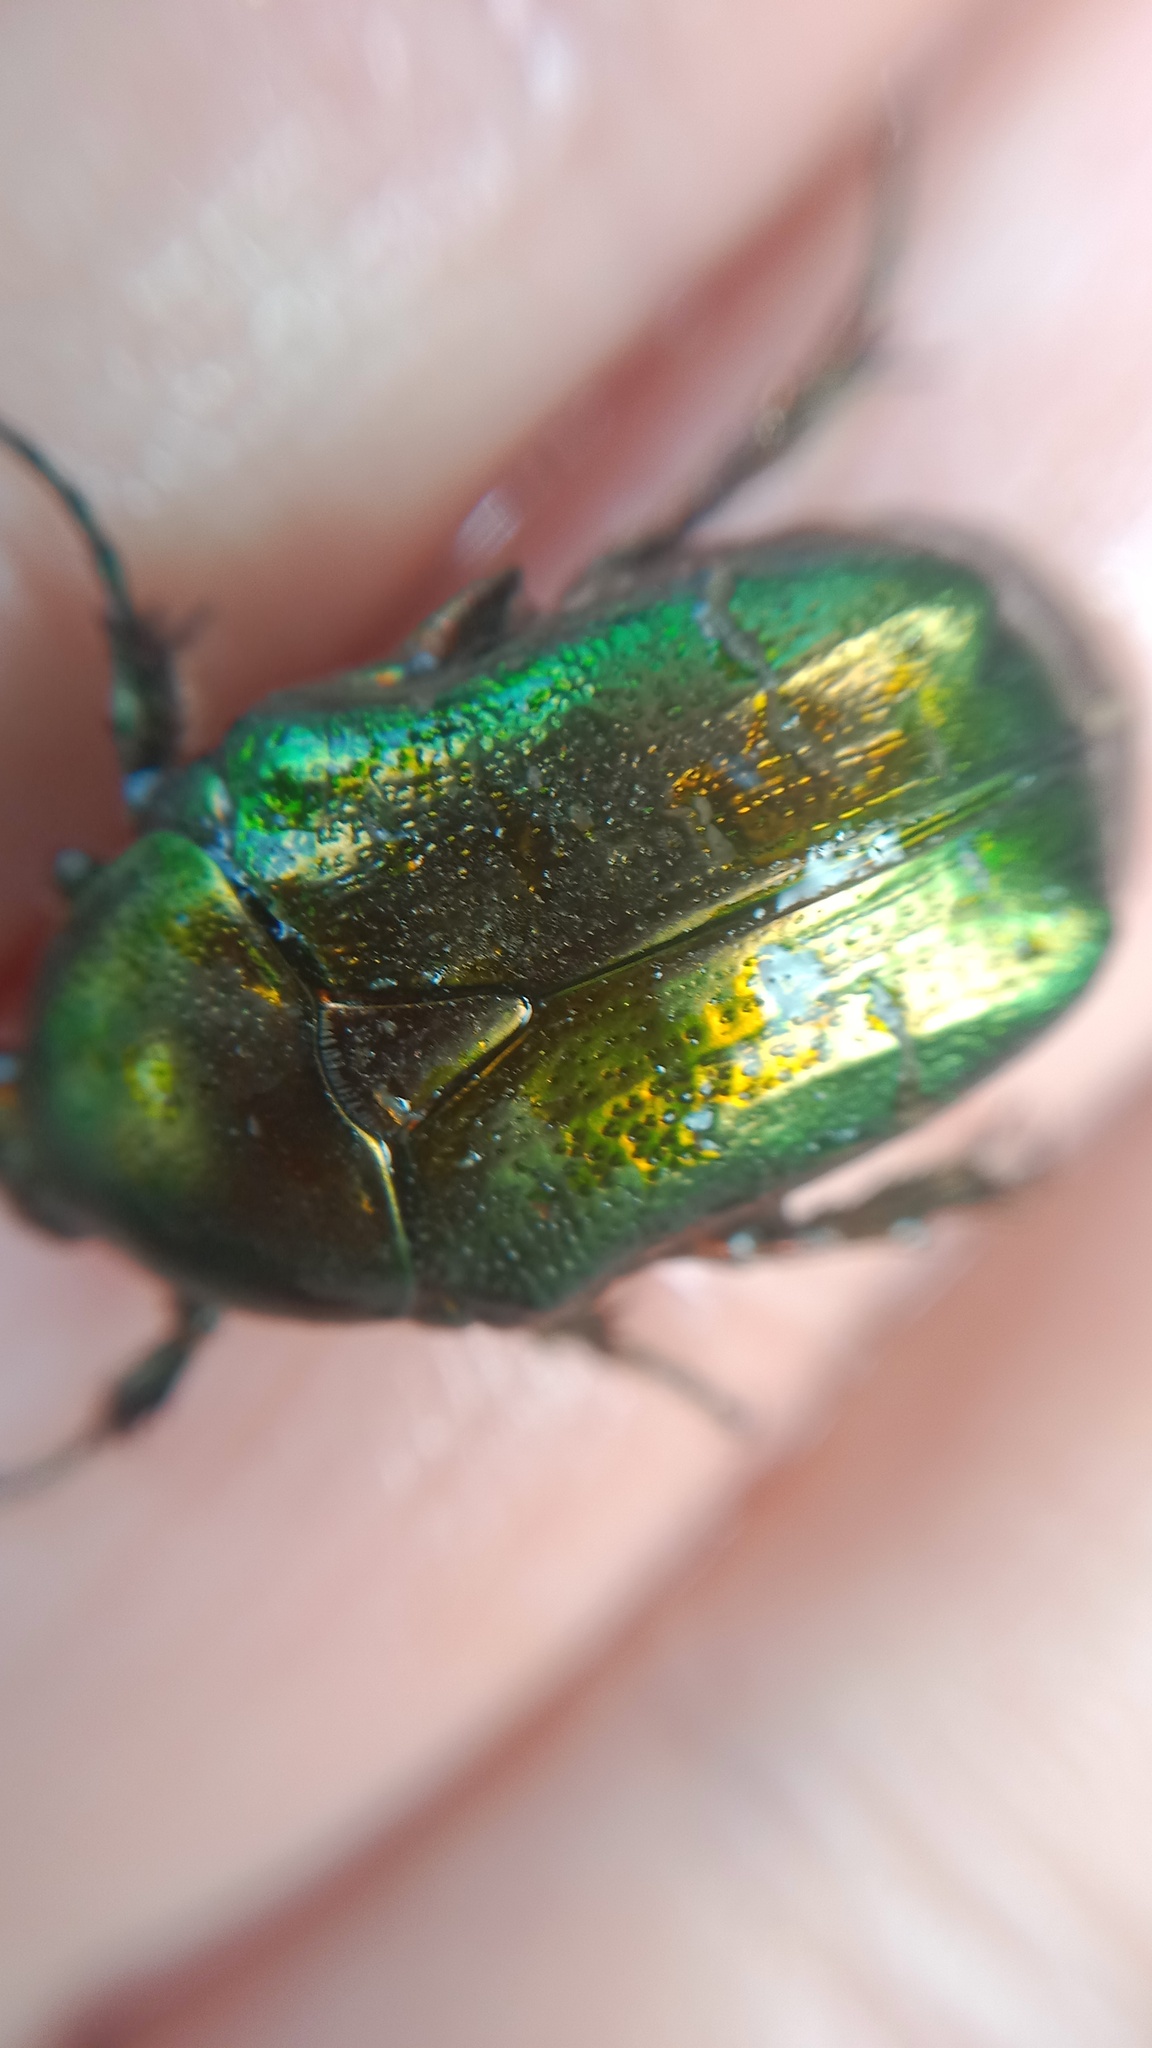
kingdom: Animalia
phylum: Arthropoda
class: Insecta
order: Coleoptera
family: Scarabaeidae
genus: Cetonia
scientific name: Cetonia aurata
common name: Rose chafer
